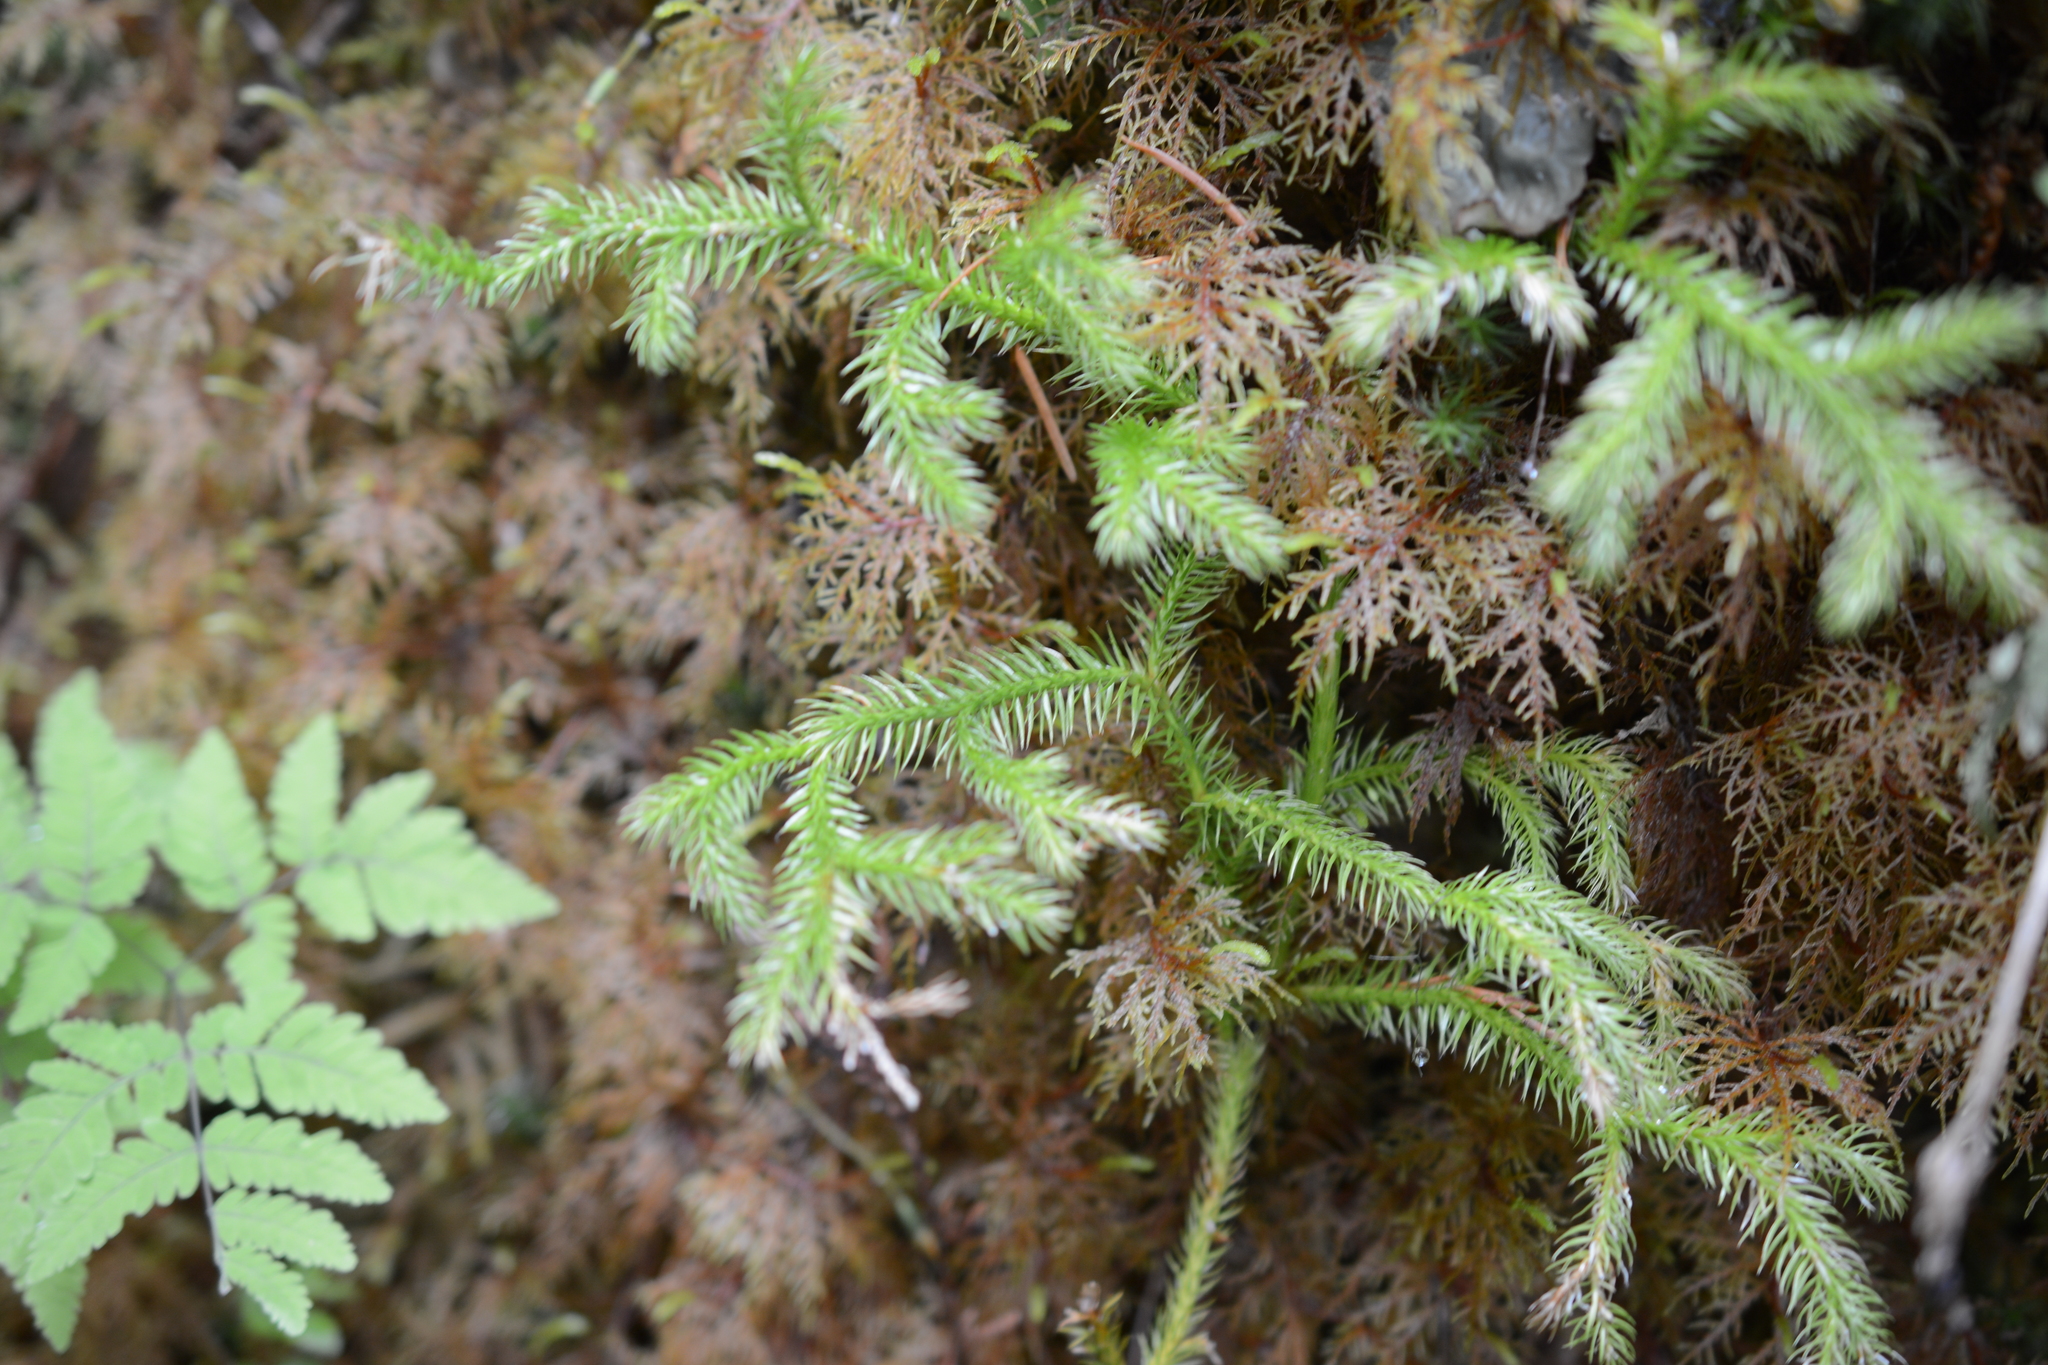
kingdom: Plantae
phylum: Tracheophyta
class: Lycopodiopsida
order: Lycopodiales
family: Lycopodiaceae
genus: Lycopodium
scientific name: Lycopodium clavatum
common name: Stag's-horn clubmoss
